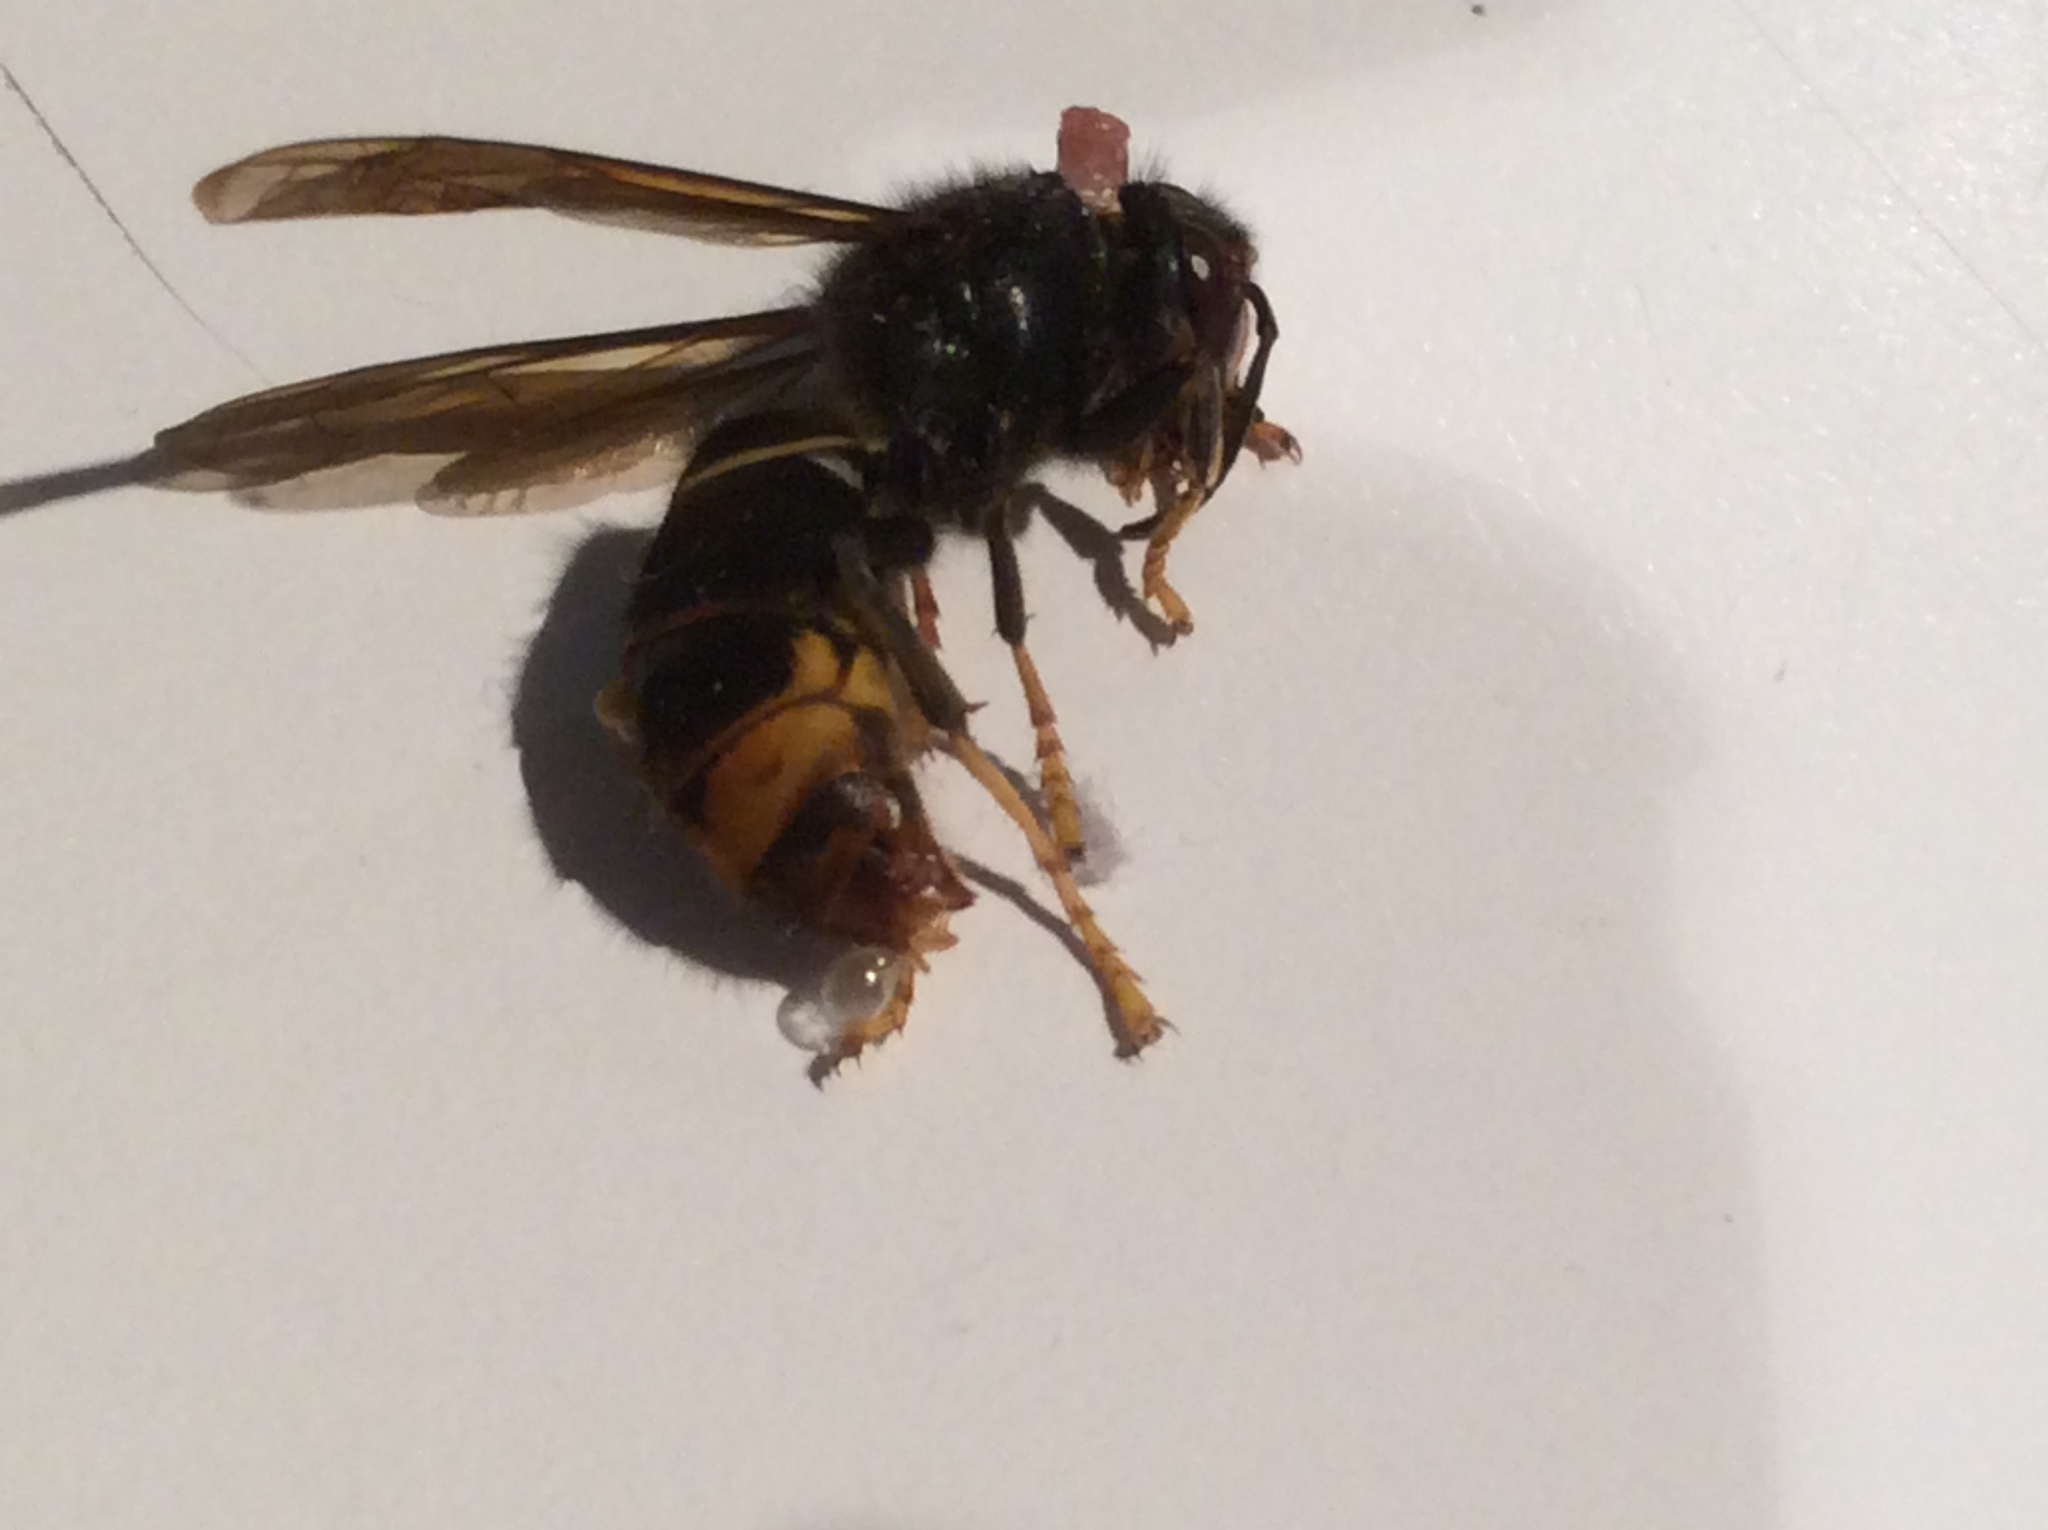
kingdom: Animalia
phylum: Arthropoda
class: Insecta
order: Hymenoptera
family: Vespidae
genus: Vespa
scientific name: Vespa velutina
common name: Asian hornet
